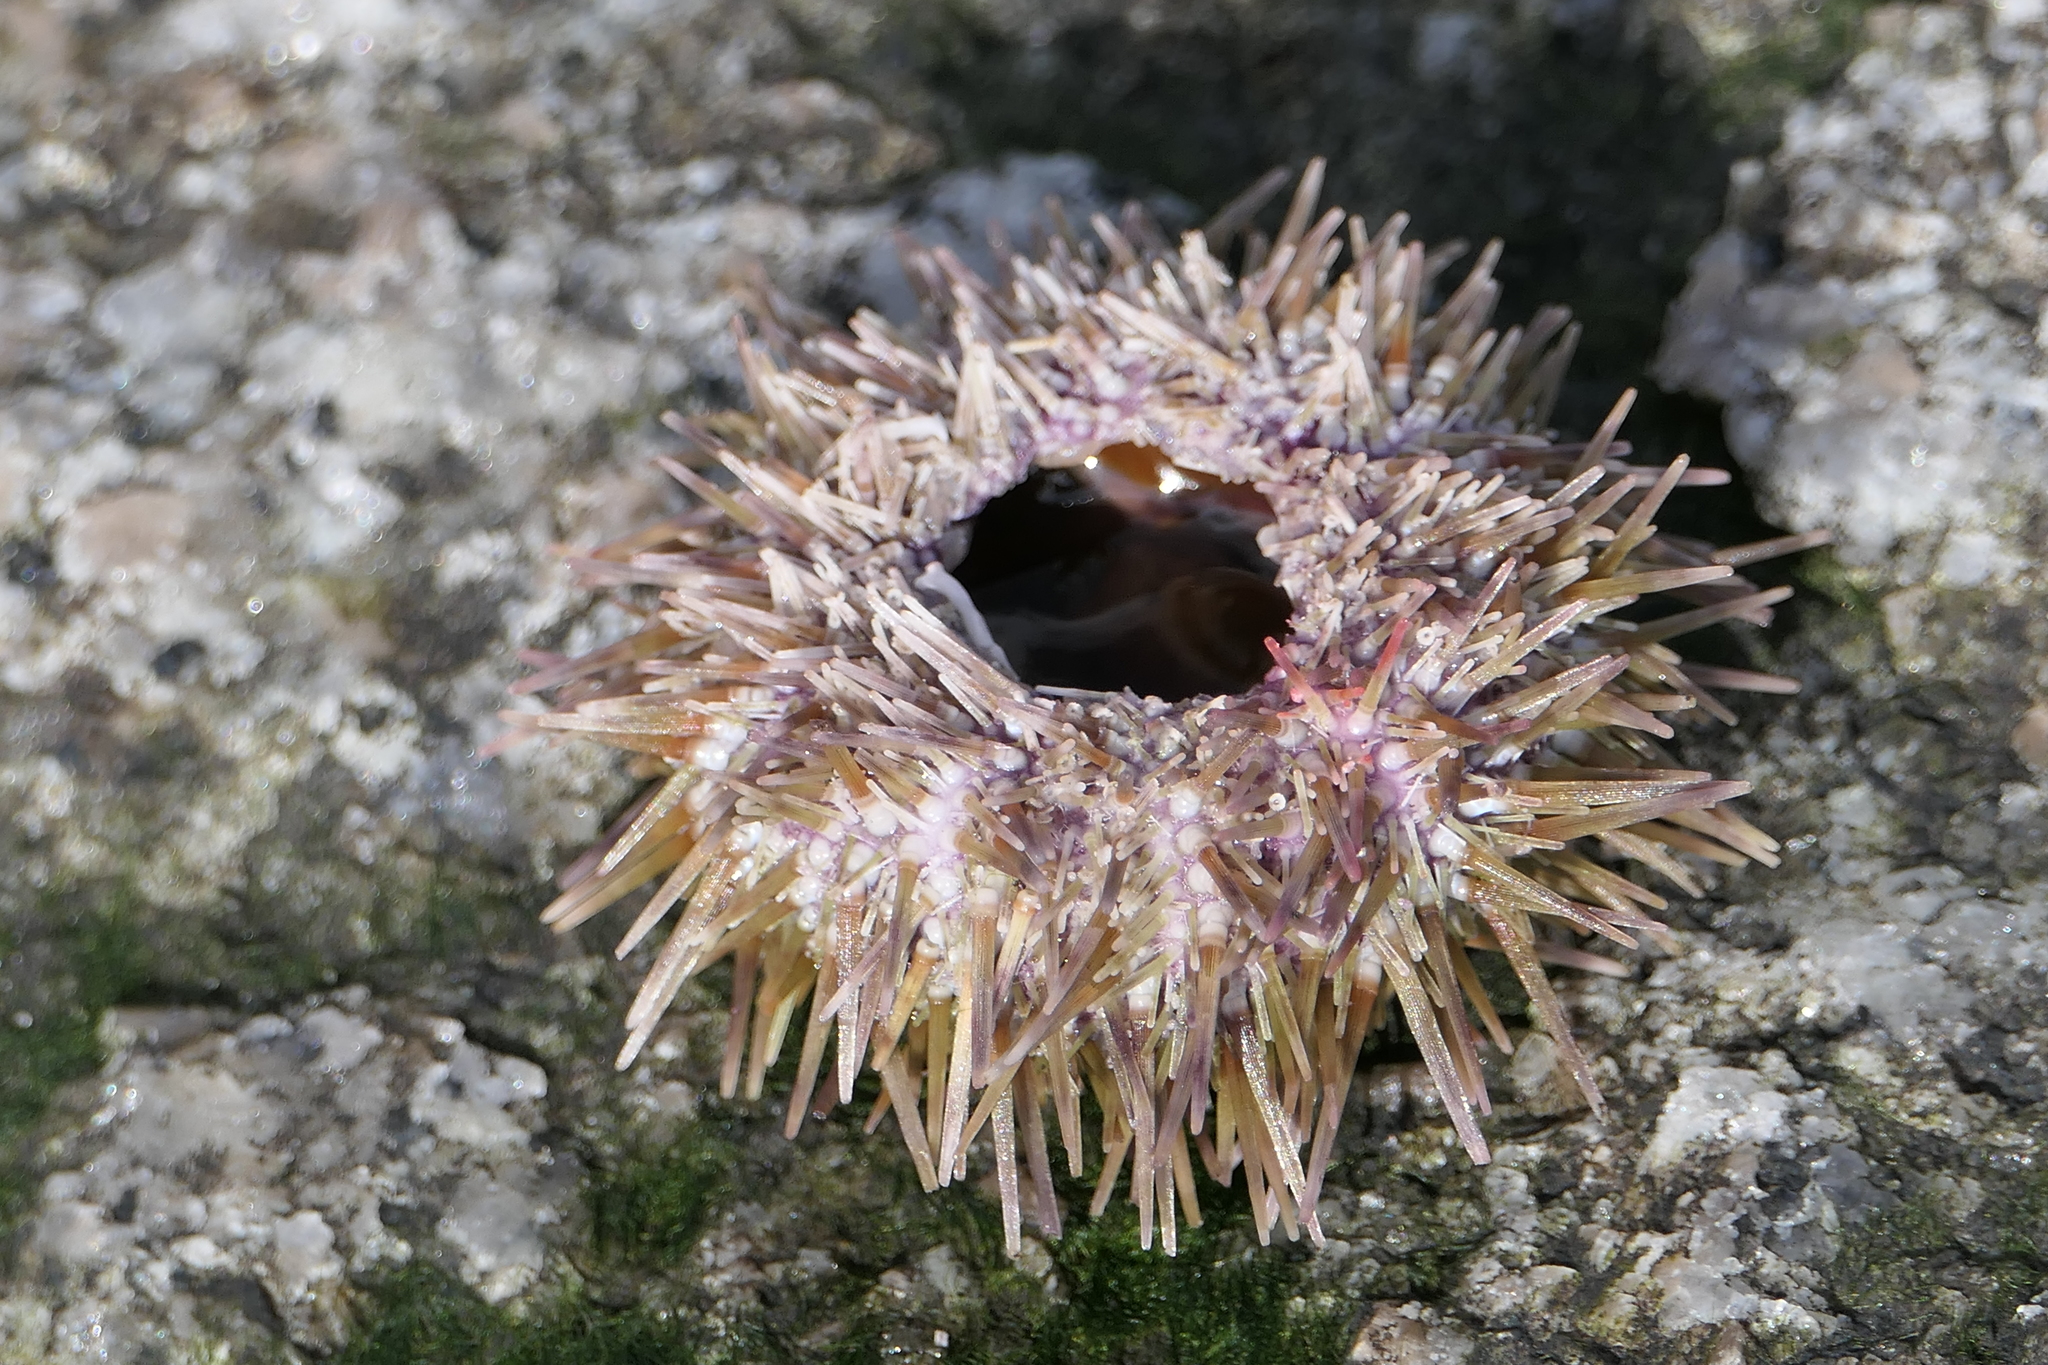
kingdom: Animalia
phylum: Echinodermata
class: Echinoidea
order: Camarodonta
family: Strongylocentrotidae
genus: Strongylocentrotus
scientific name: Strongylocentrotus droebachiensis
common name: Northern sea urchin
